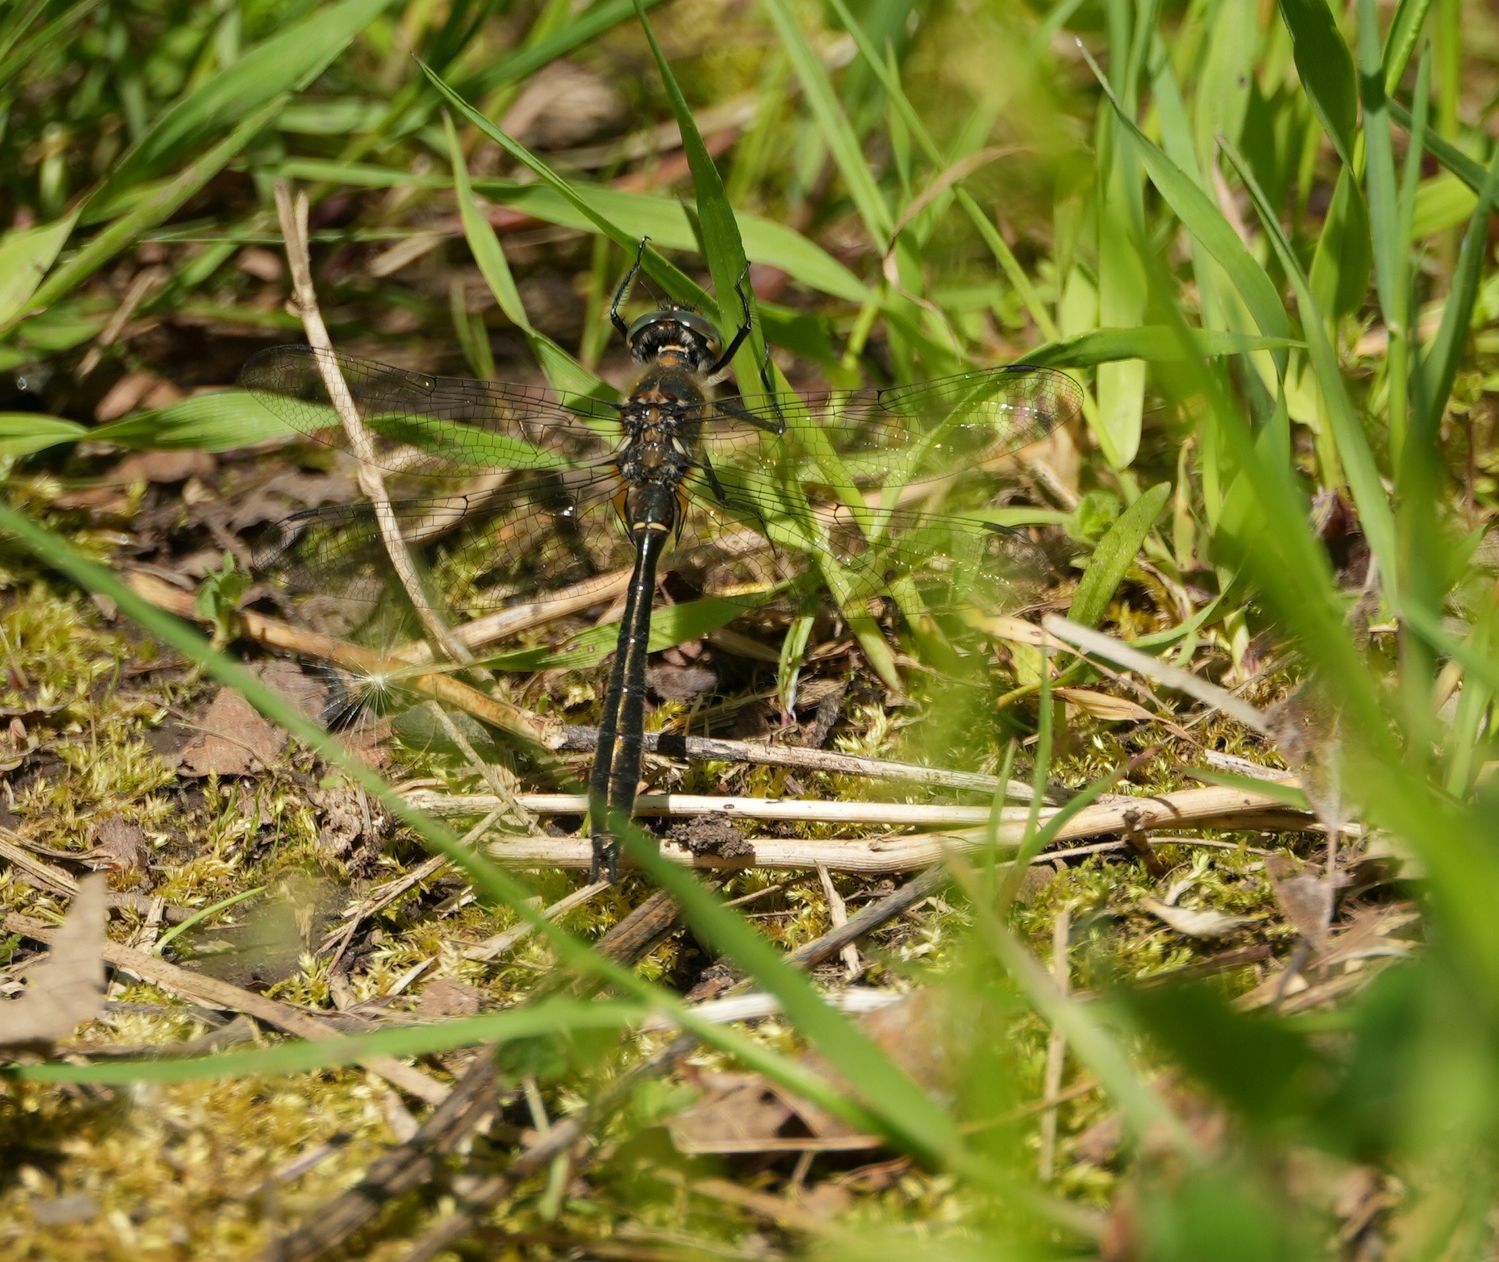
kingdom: Animalia
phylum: Arthropoda
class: Insecta
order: Odonata
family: Corduliidae
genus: Cordulia
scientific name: Cordulia shurtleffii
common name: American emerald
